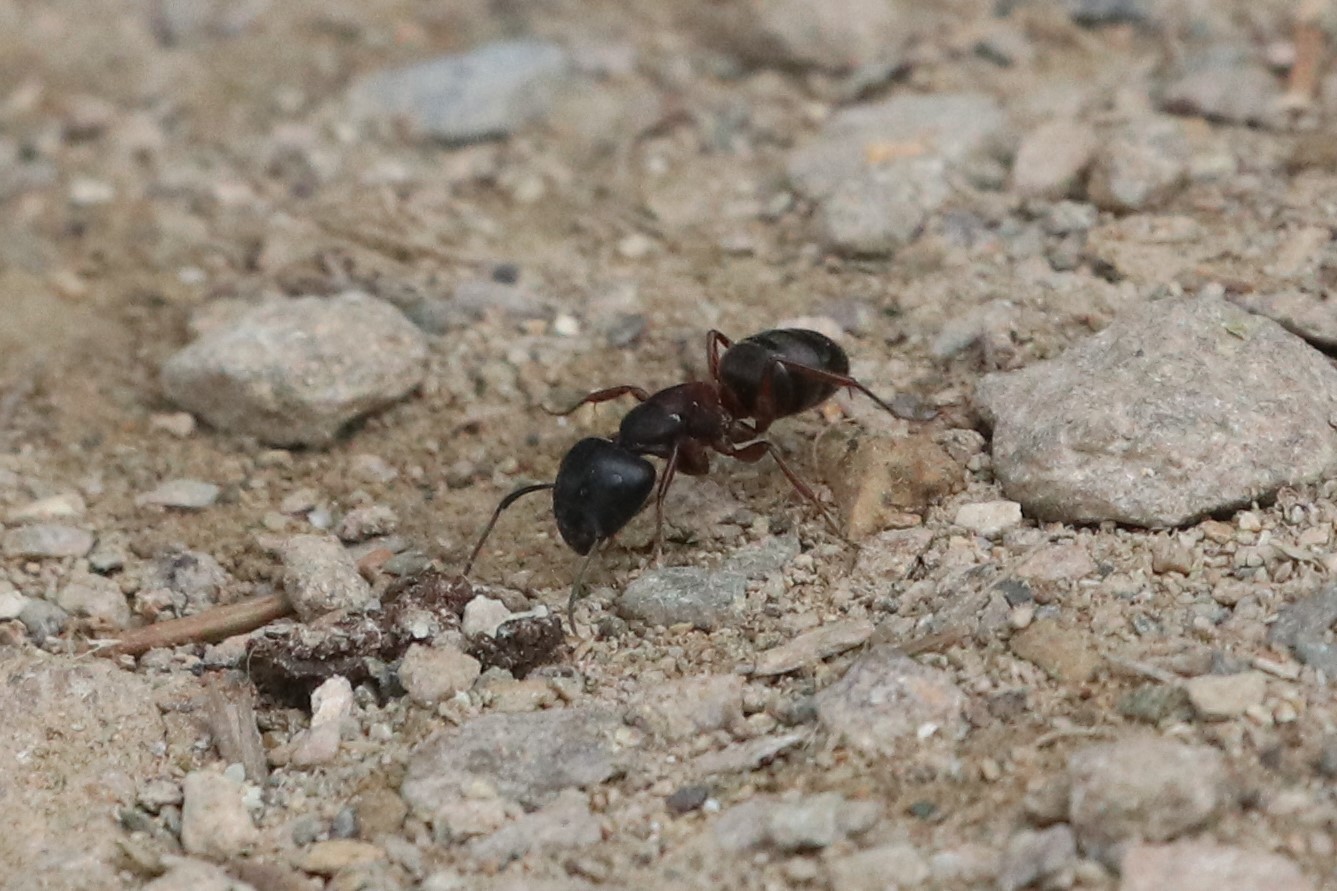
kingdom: Animalia
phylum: Arthropoda
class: Insecta
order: Hymenoptera
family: Formicidae
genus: Camponotus
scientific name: Camponotus herculeanus
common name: Hercules ant
